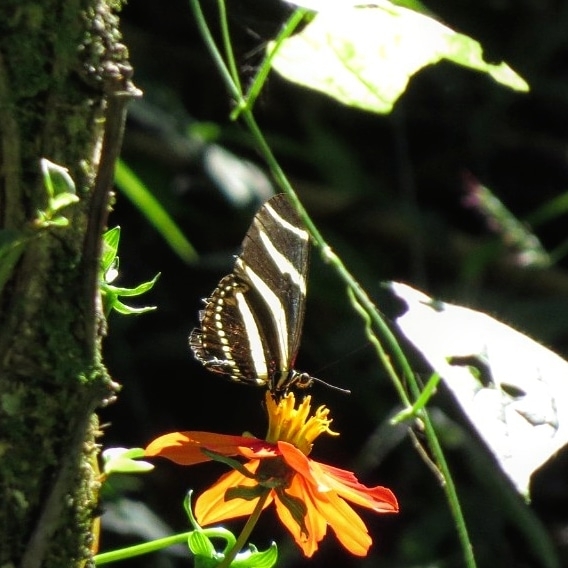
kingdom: Animalia
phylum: Arthropoda
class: Insecta
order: Lepidoptera
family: Nymphalidae
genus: Heliconius
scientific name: Heliconius charithonia
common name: Zebra long wing
